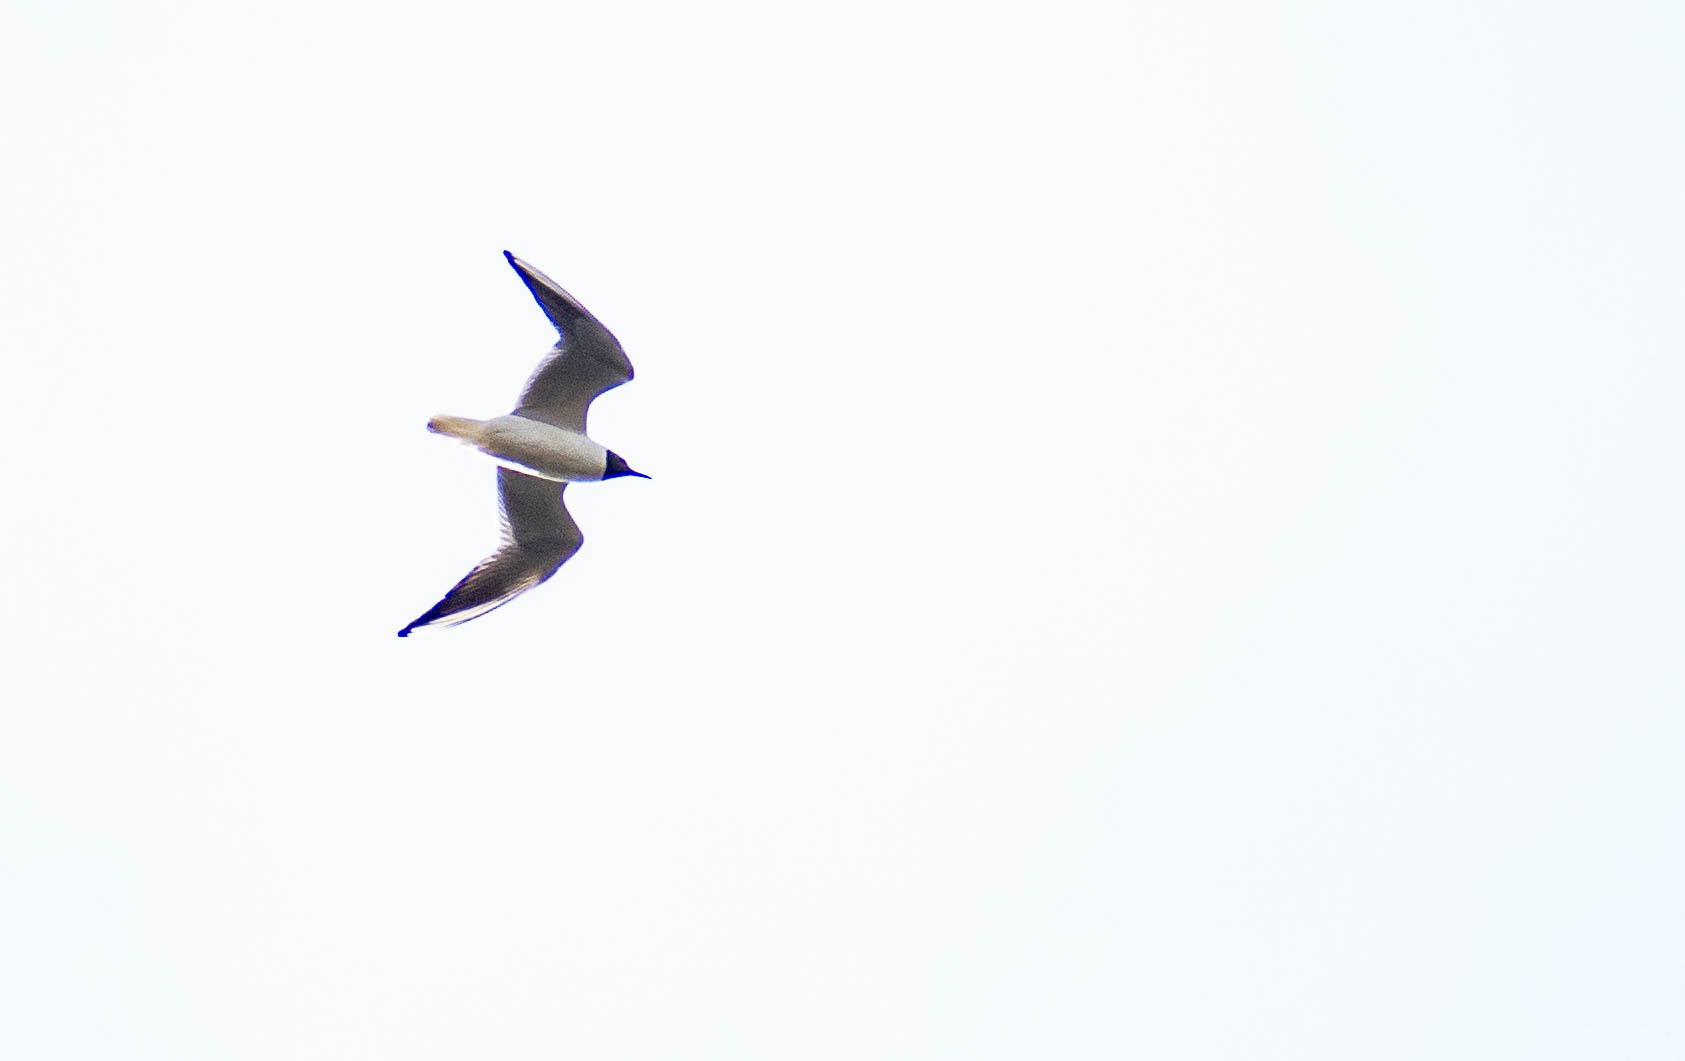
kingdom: Animalia
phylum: Chordata
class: Aves
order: Charadriiformes
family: Laridae
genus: Chroicocephalus
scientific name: Chroicocephalus ridibundus
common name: Black-headed gull
